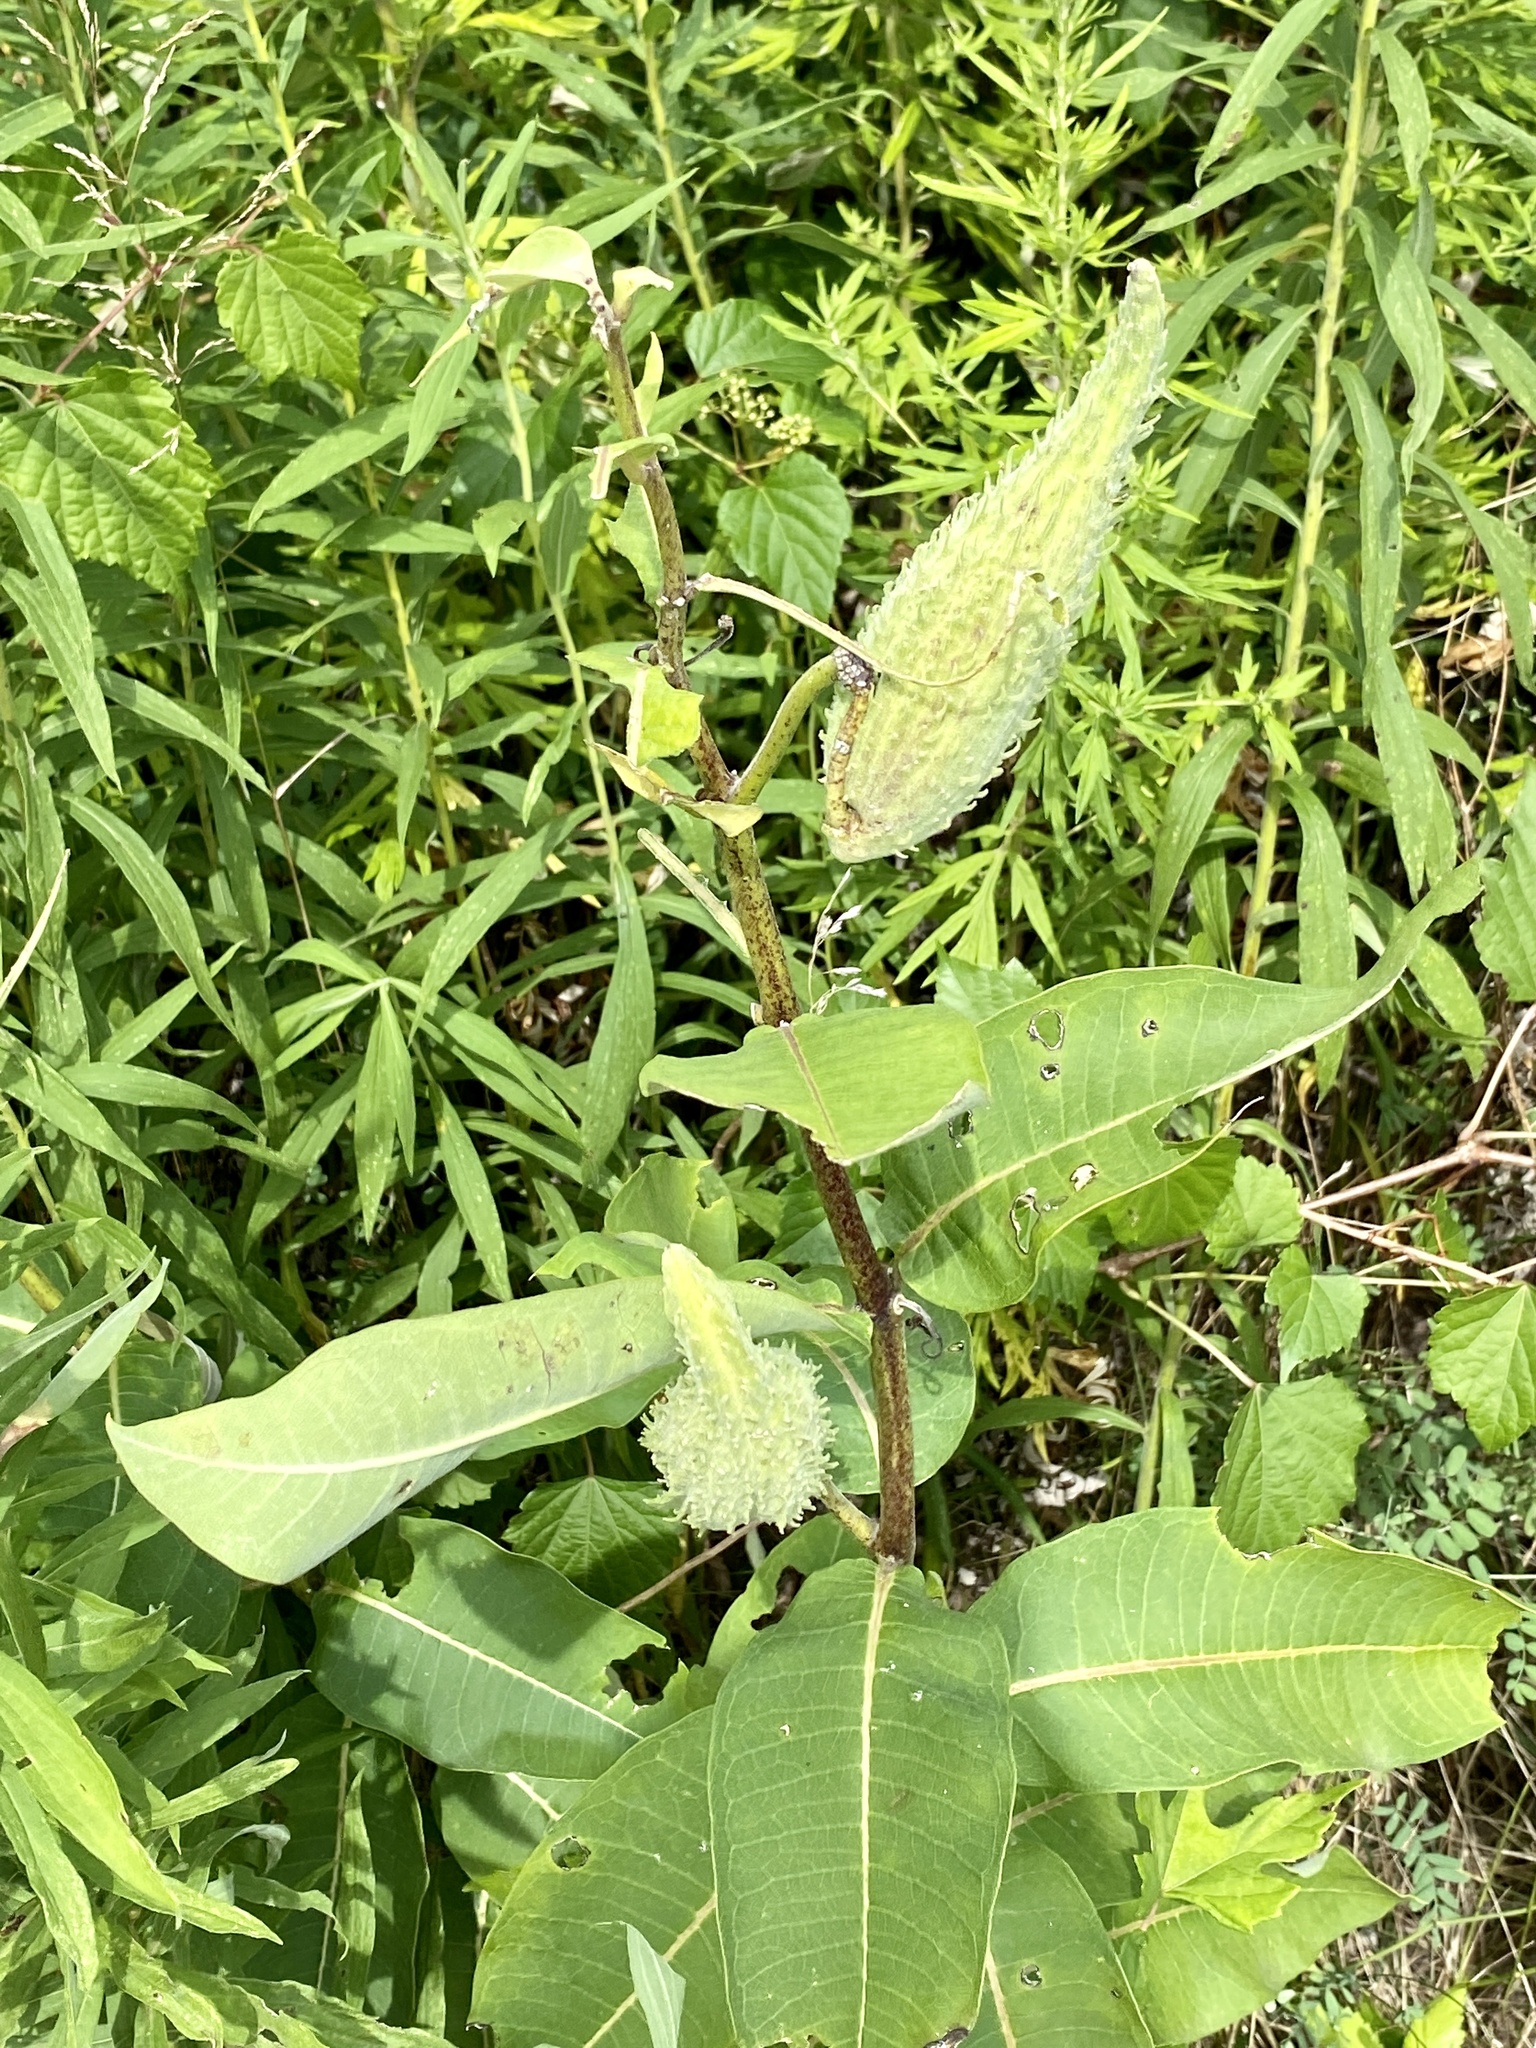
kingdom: Plantae
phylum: Tracheophyta
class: Magnoliopsida
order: Gentianales
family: Apocynaceae
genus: Asclepias
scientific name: Asclepias syriaca
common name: Common milkweed
